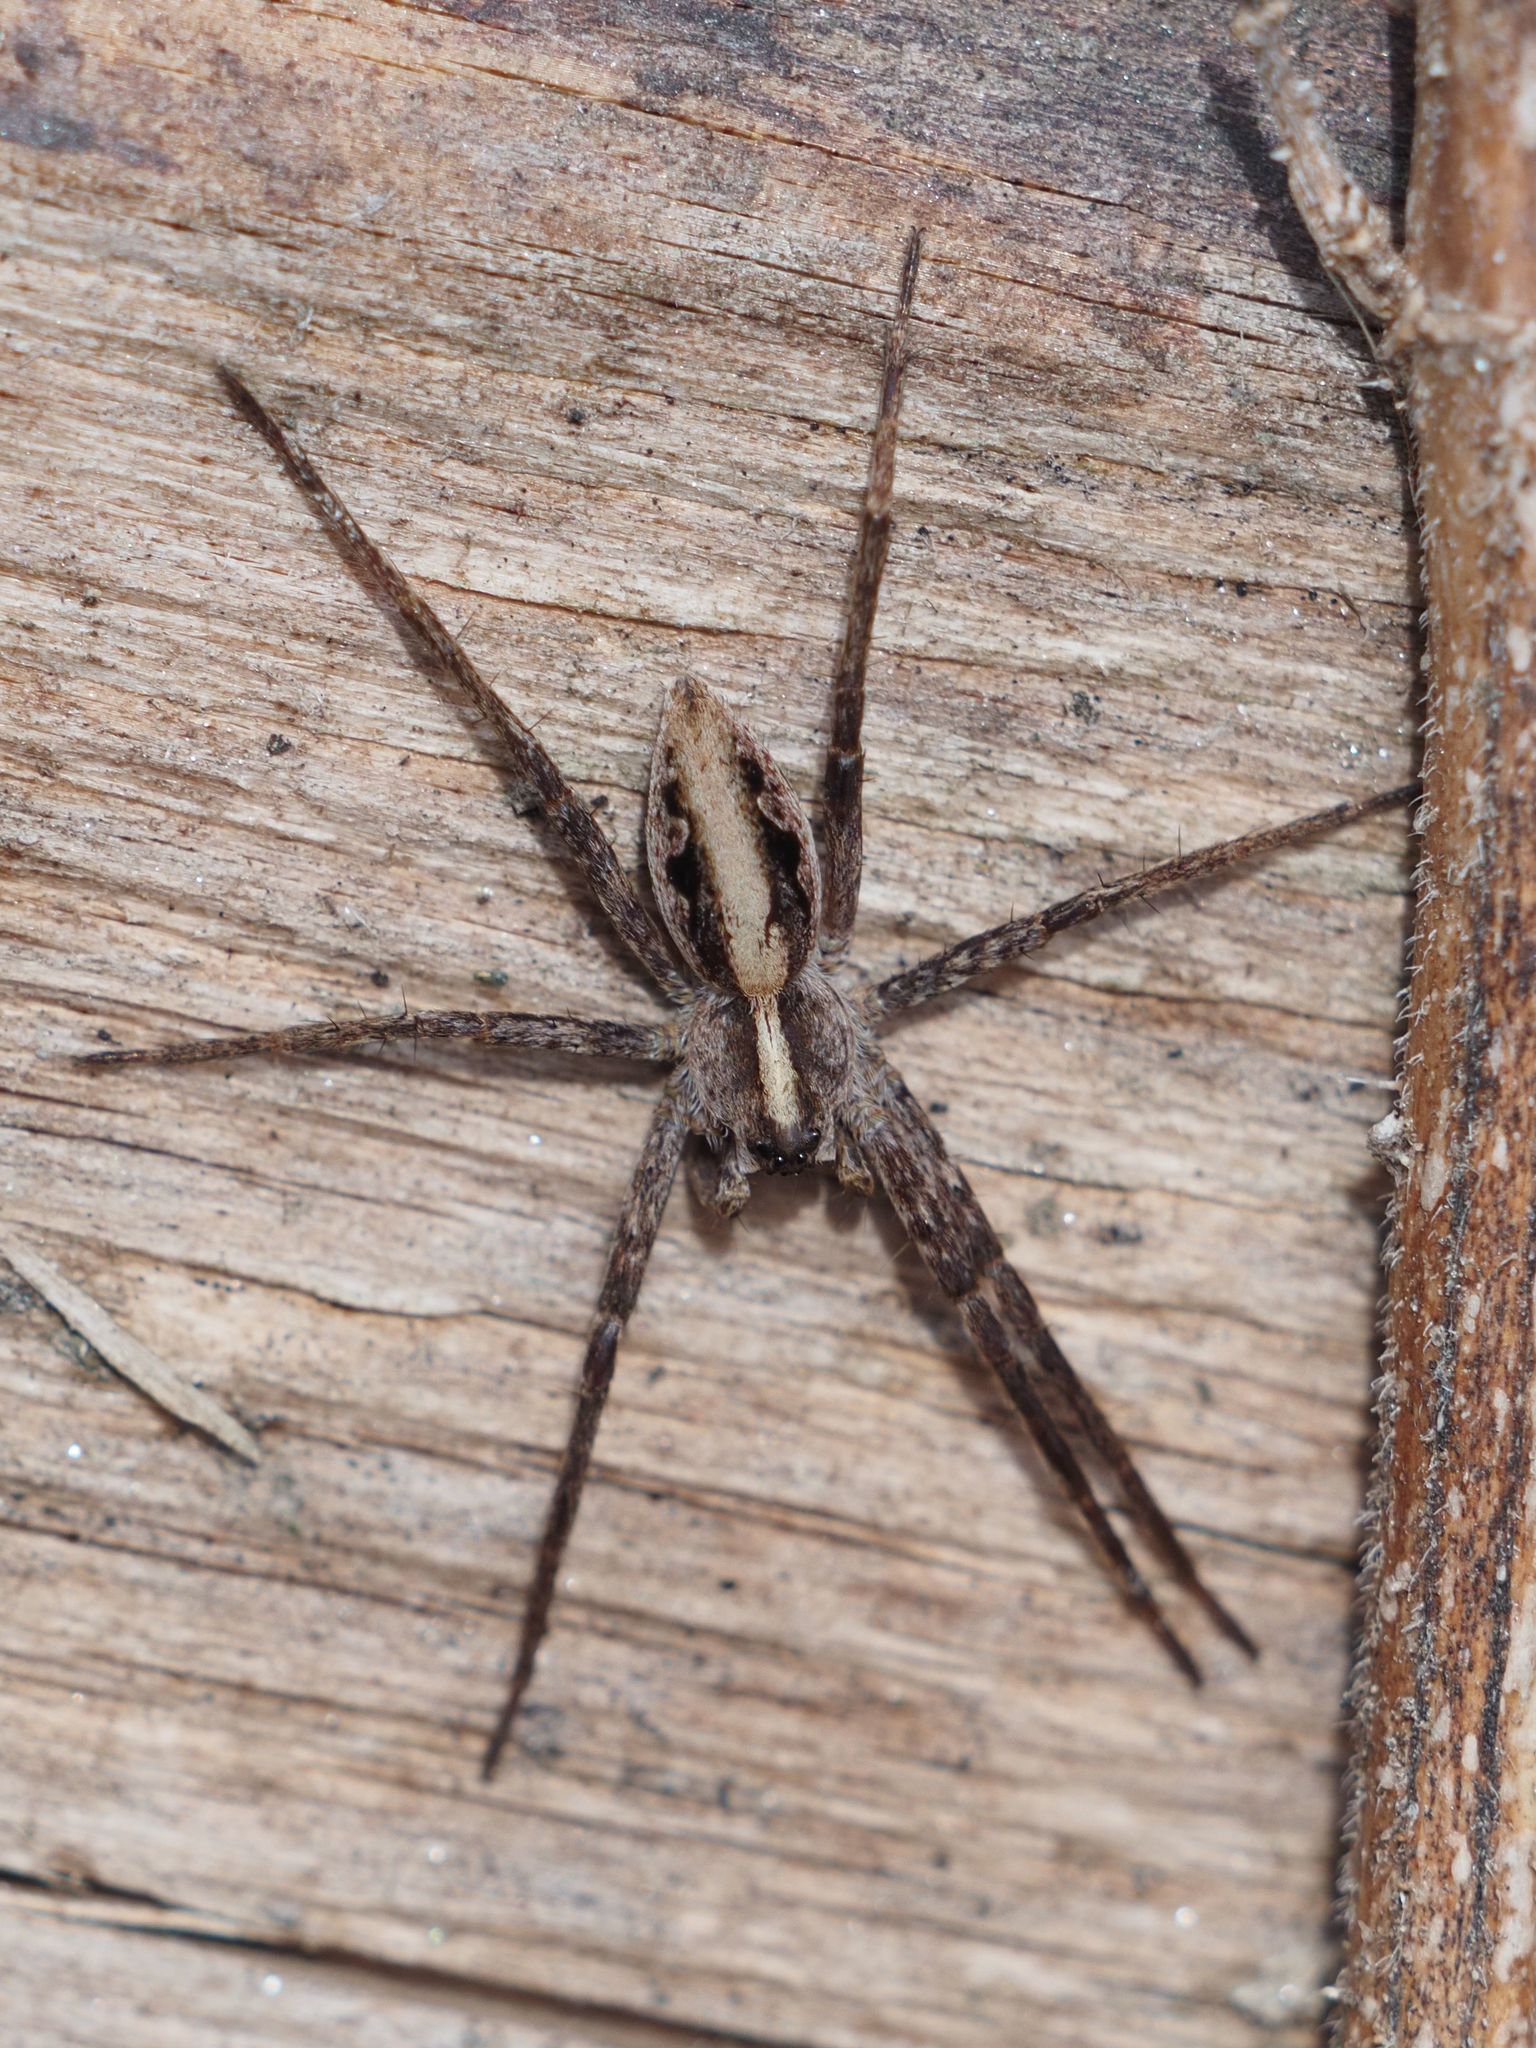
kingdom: Animalia
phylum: Arthropoda
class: Arachnida
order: Araneae
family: Pisauridae
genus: Pisaura
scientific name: Pisaura mirabilis
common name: Tent spider
